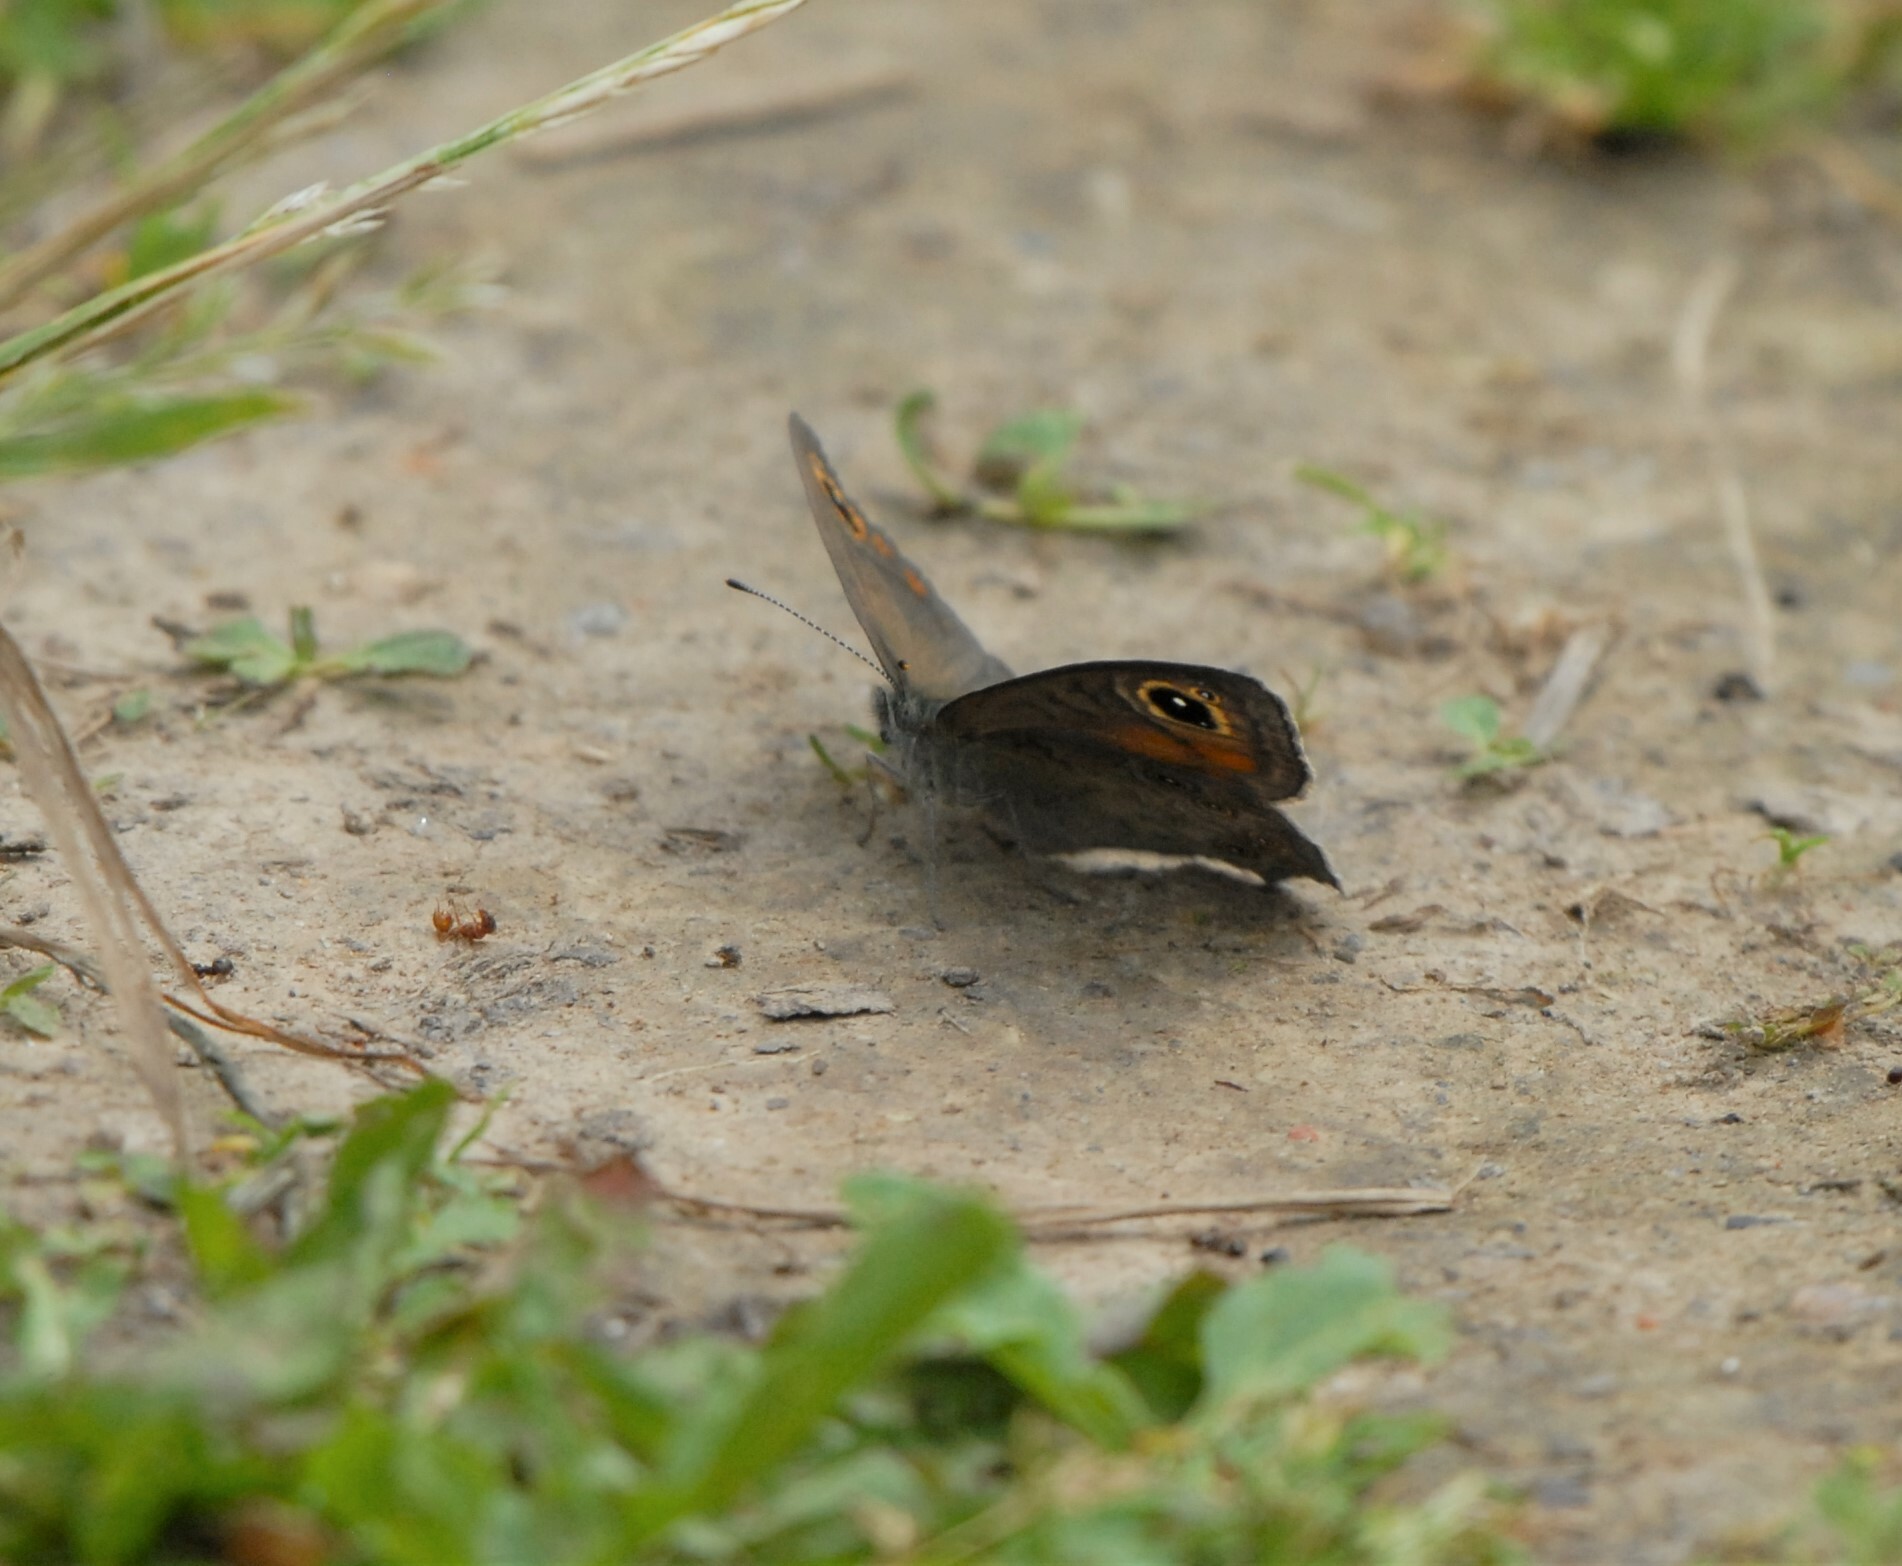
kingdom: Animalia
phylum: Arthropoda
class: Insecta
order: Lepidoptera
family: Nymphalidae
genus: Pararge
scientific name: Pararge Lasiommata maera
